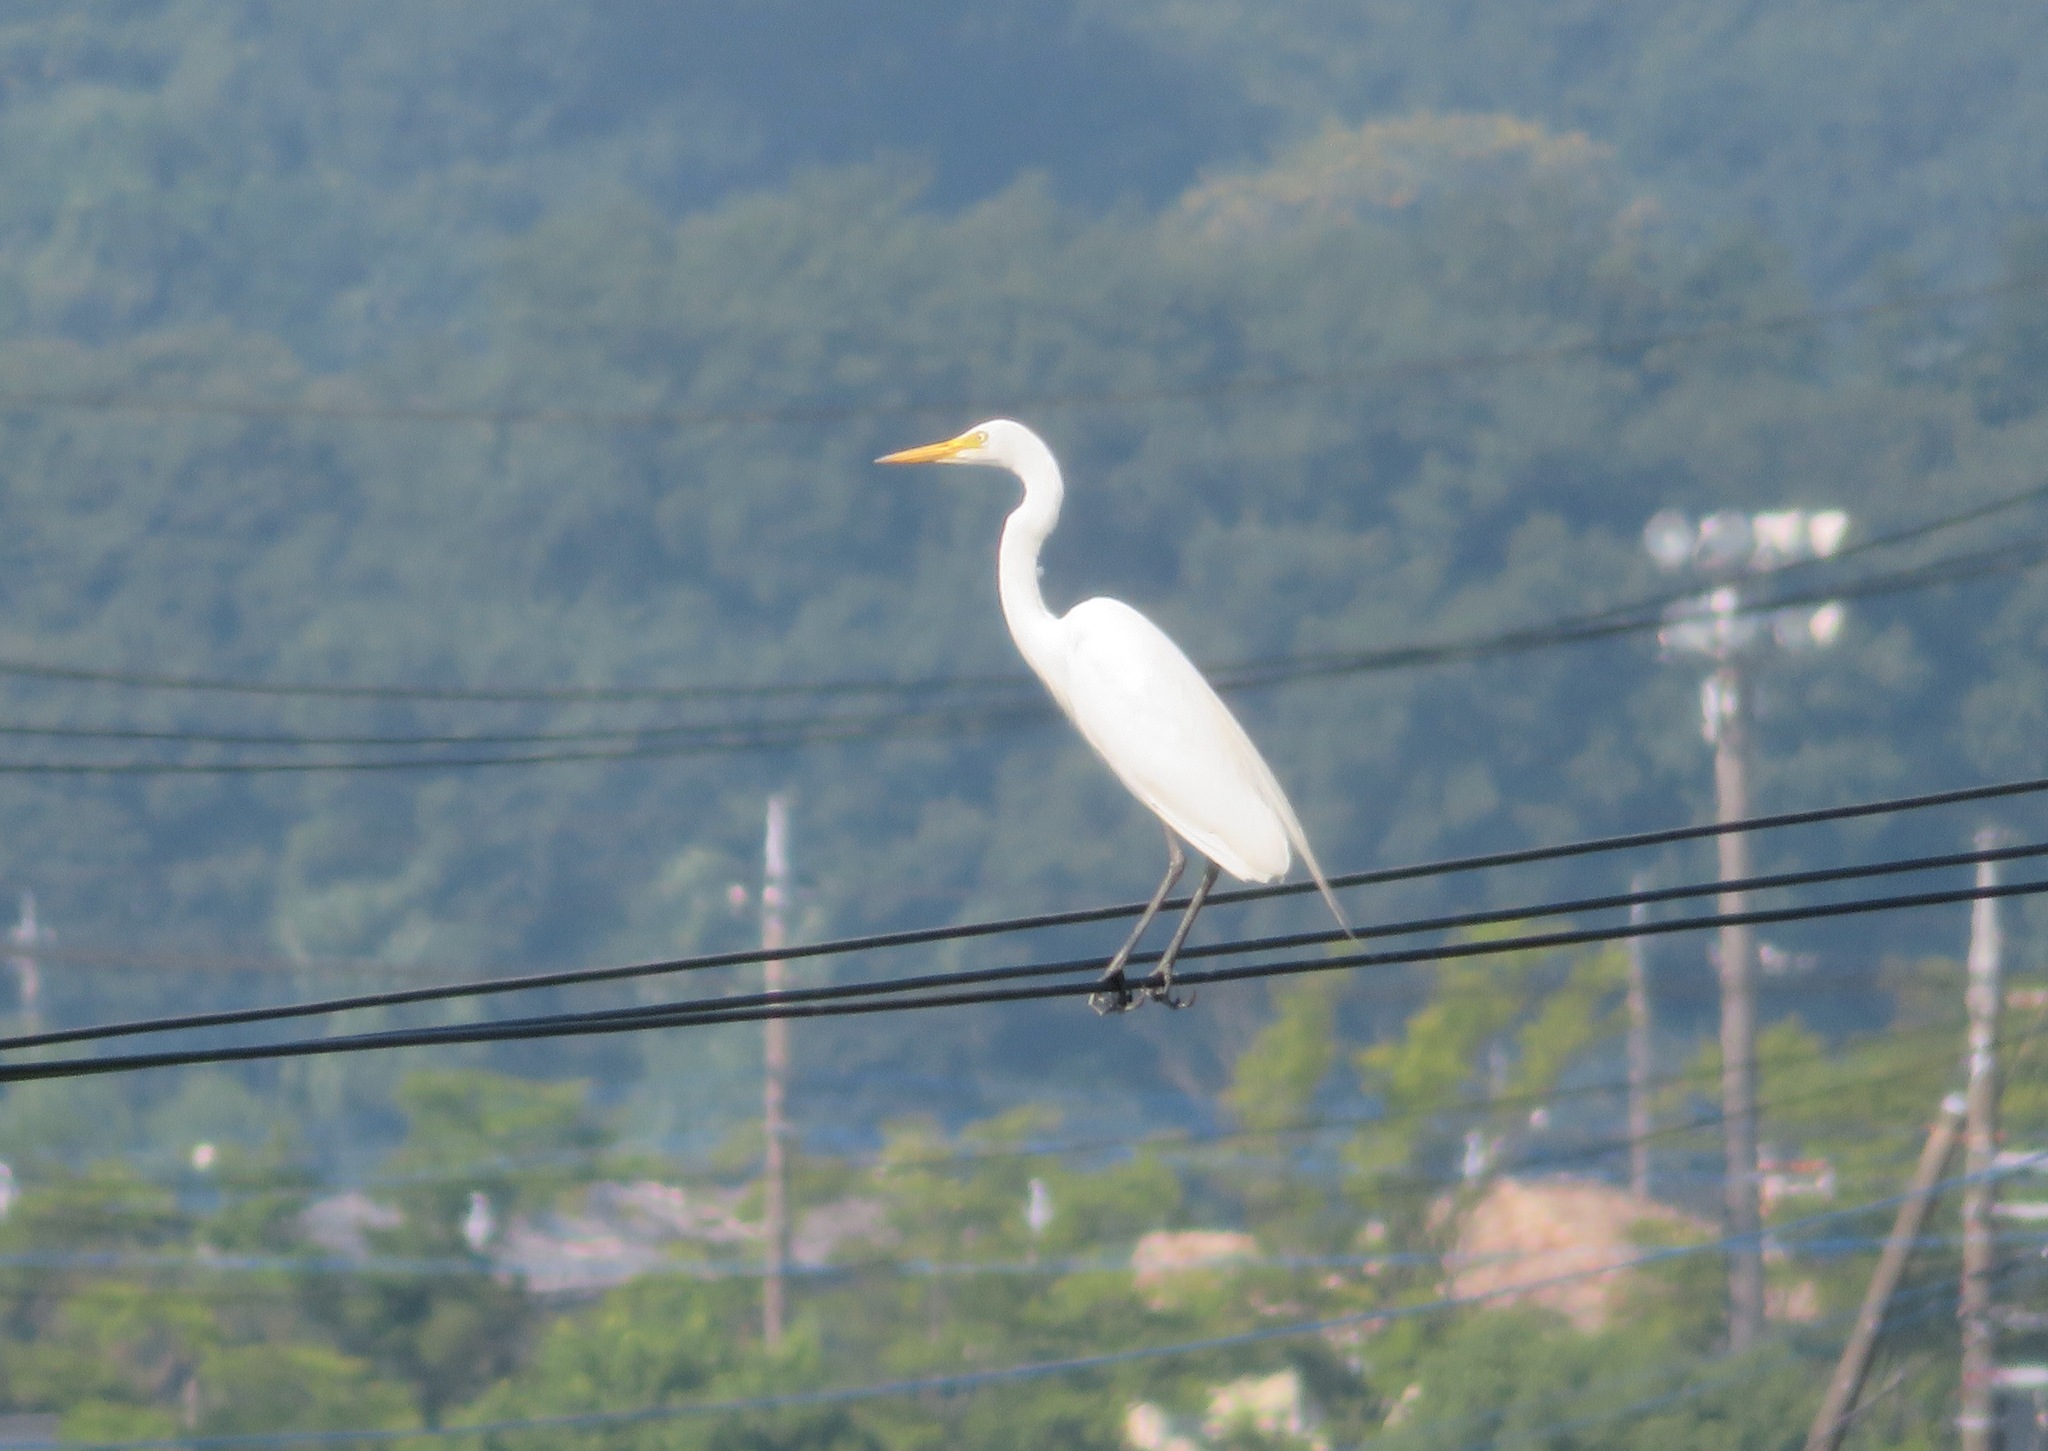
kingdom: Animalia
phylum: Chordata
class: Aves
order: Pelecaniformes
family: Ardeidae
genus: Ardea
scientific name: Ardea alba
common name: Great egret
